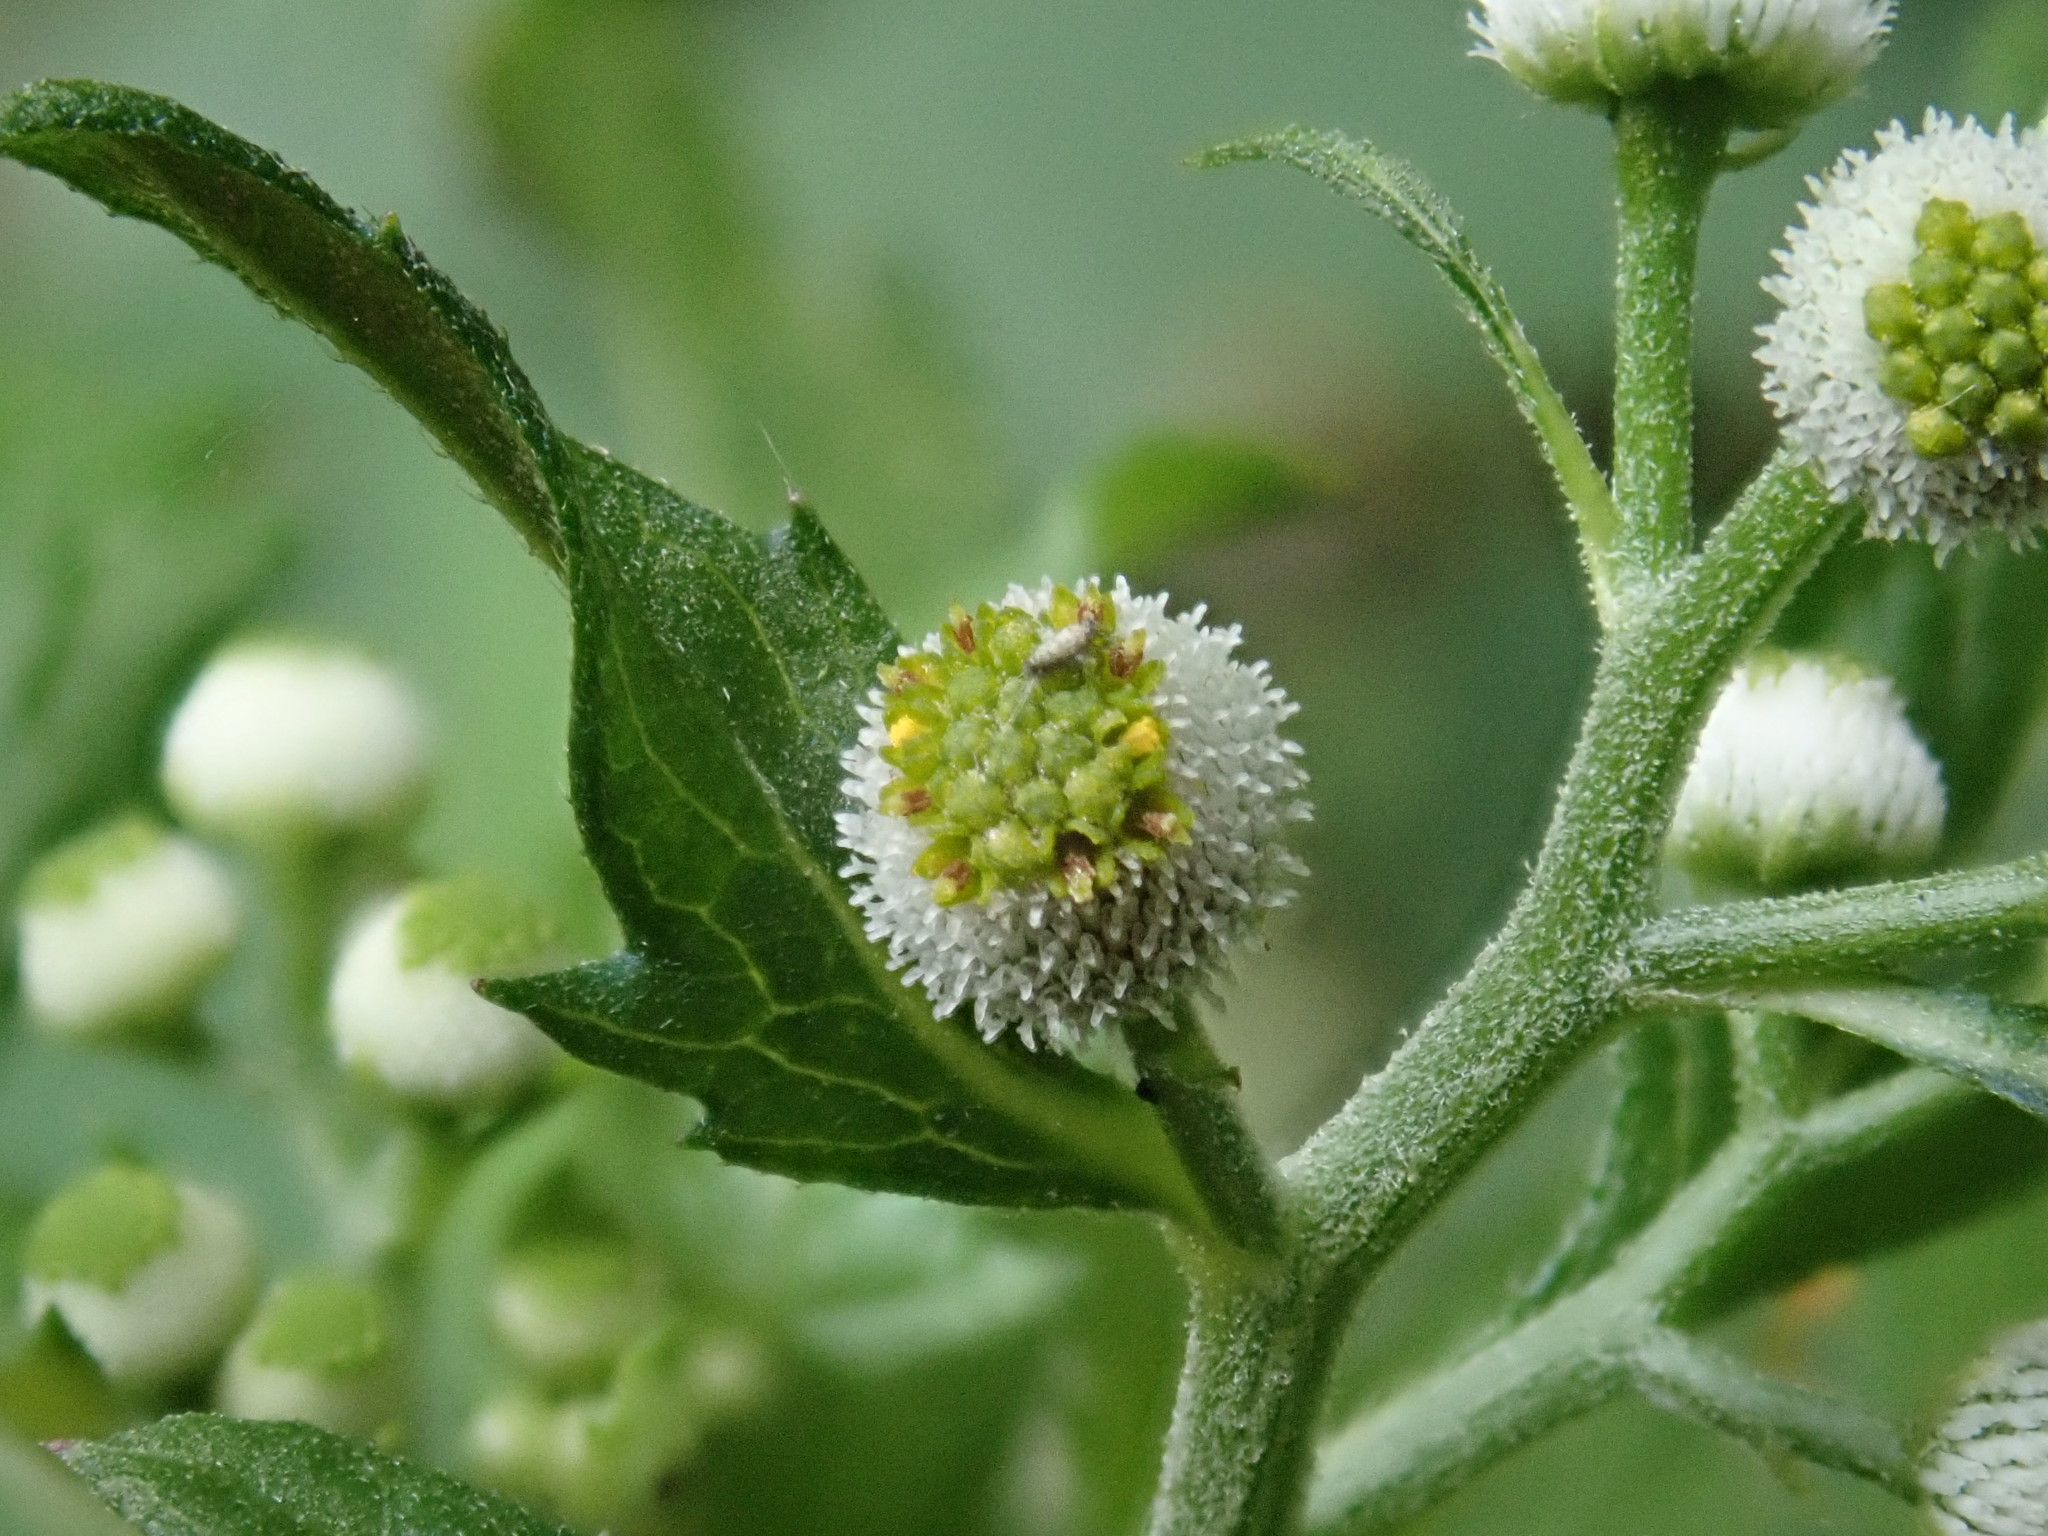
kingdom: Plantae
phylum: Tracheophyta
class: Magnoliopsida
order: Asterales
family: Asteraceae
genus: Dichrocephala
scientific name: Dichrocephala integrifolia
